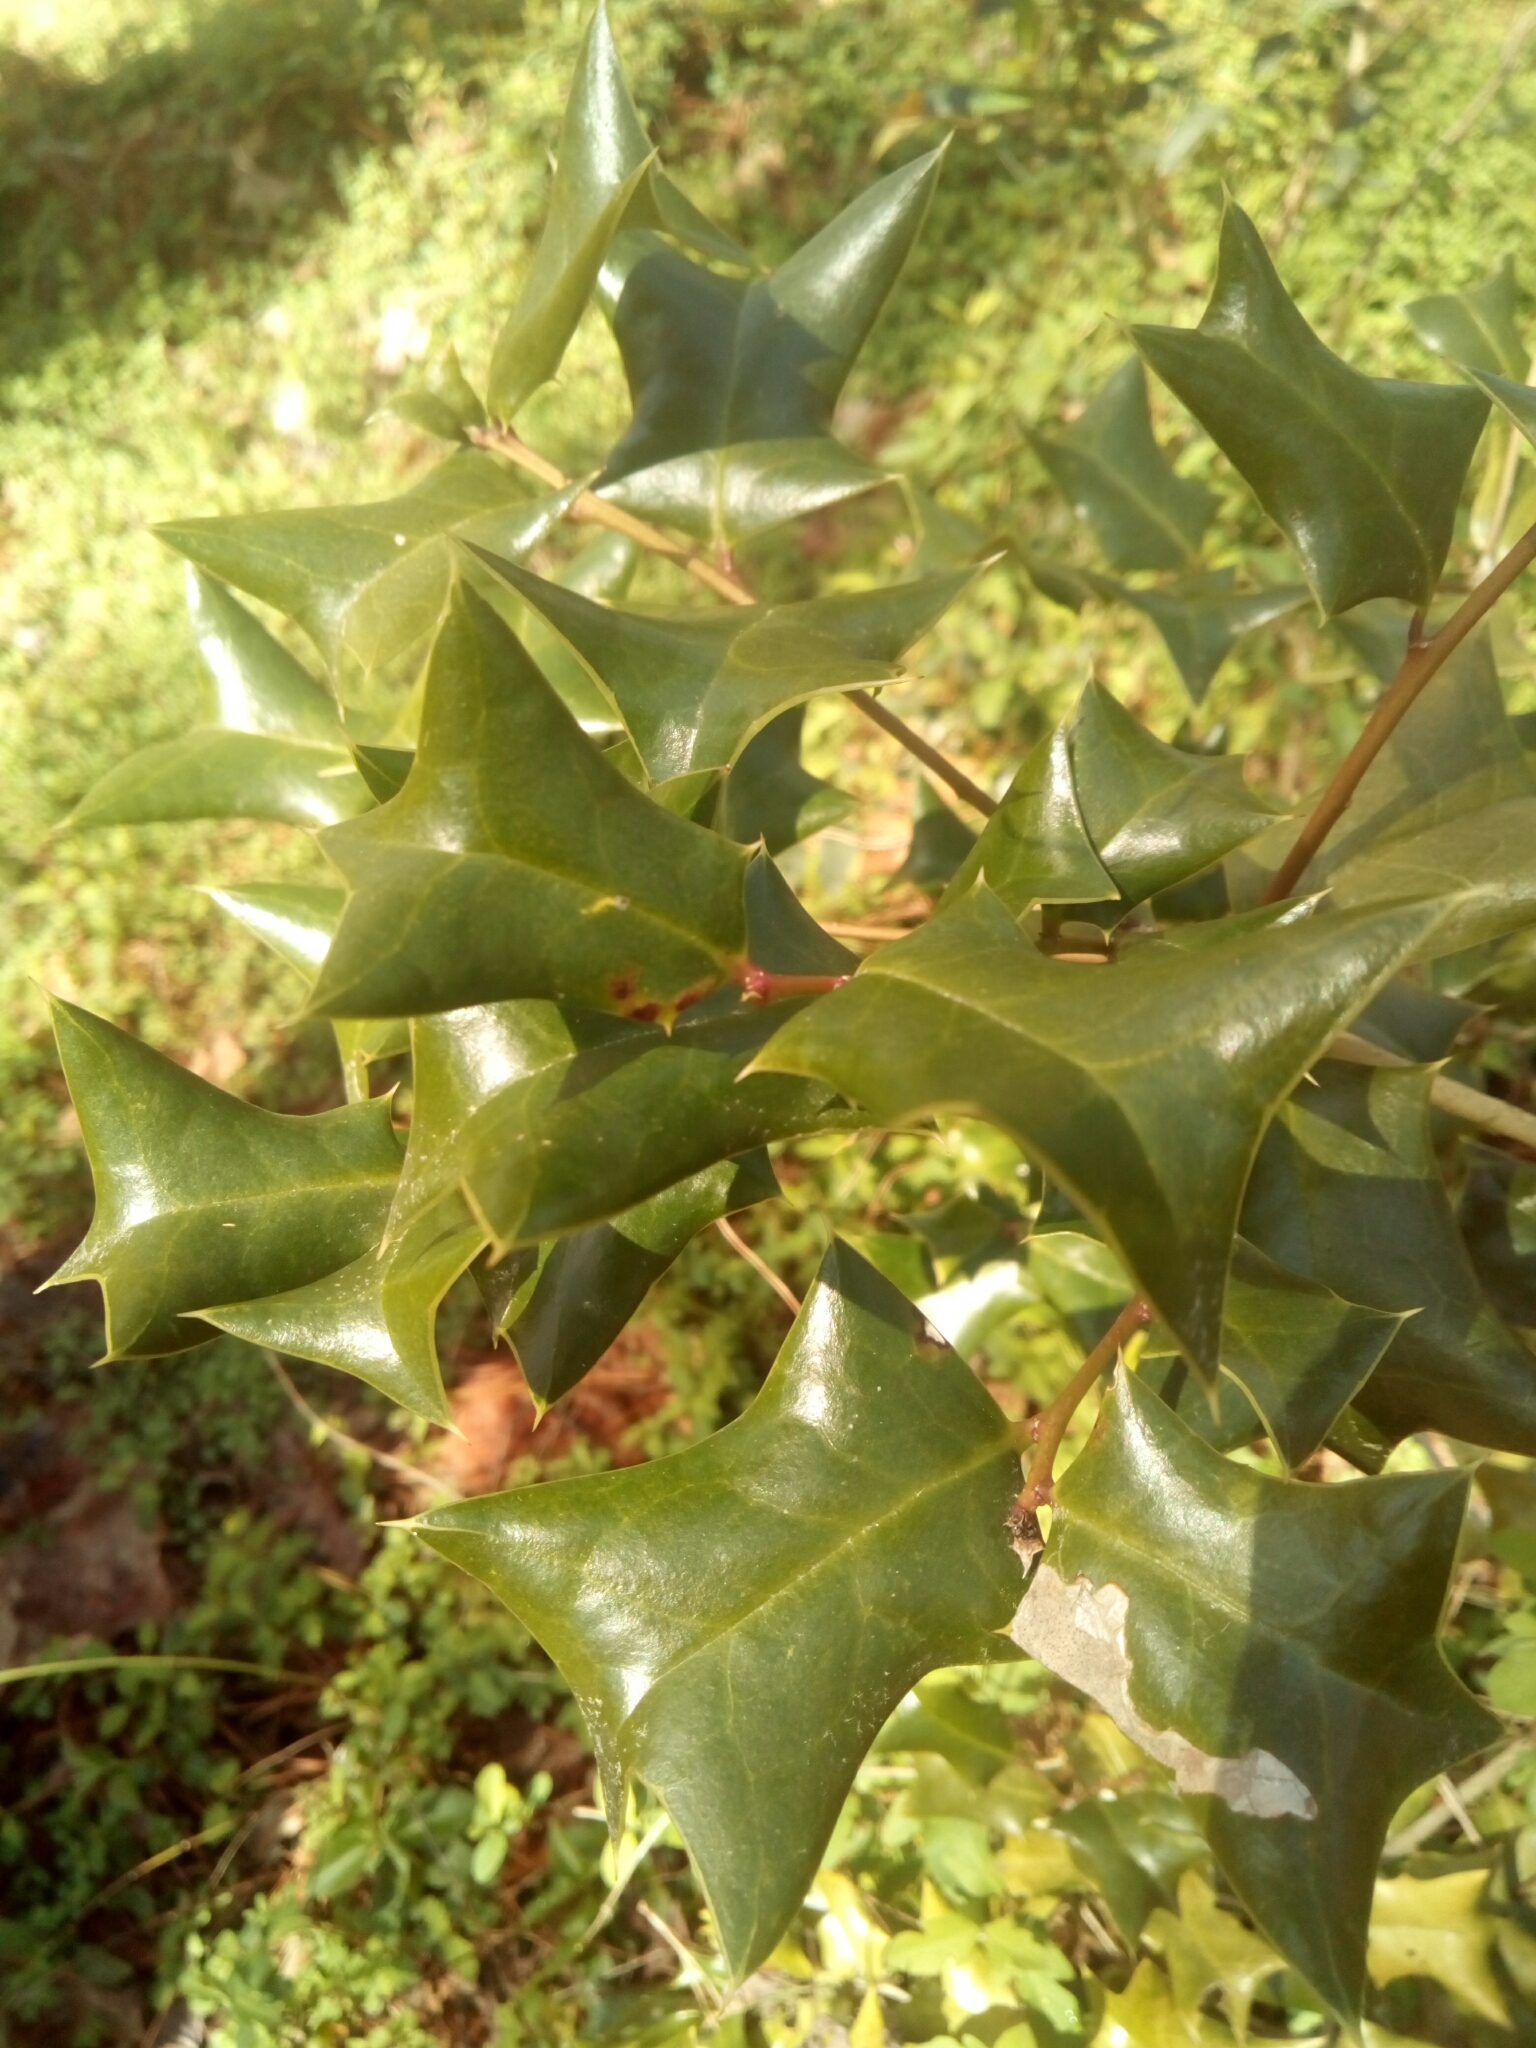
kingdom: Plantae
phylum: Tracheophyta
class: Magnoliopsida
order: Aquifoliales
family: Aquifoliaceae
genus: Ilex
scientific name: Ilex cornuta
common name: Chinese holly
